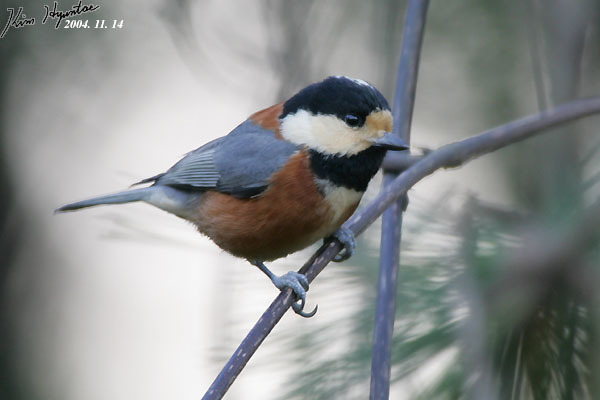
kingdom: Animalia
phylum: Chordata
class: Aves
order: Passeriformes
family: Paridae
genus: Poecile
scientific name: Poecile varius
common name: Varied tit
